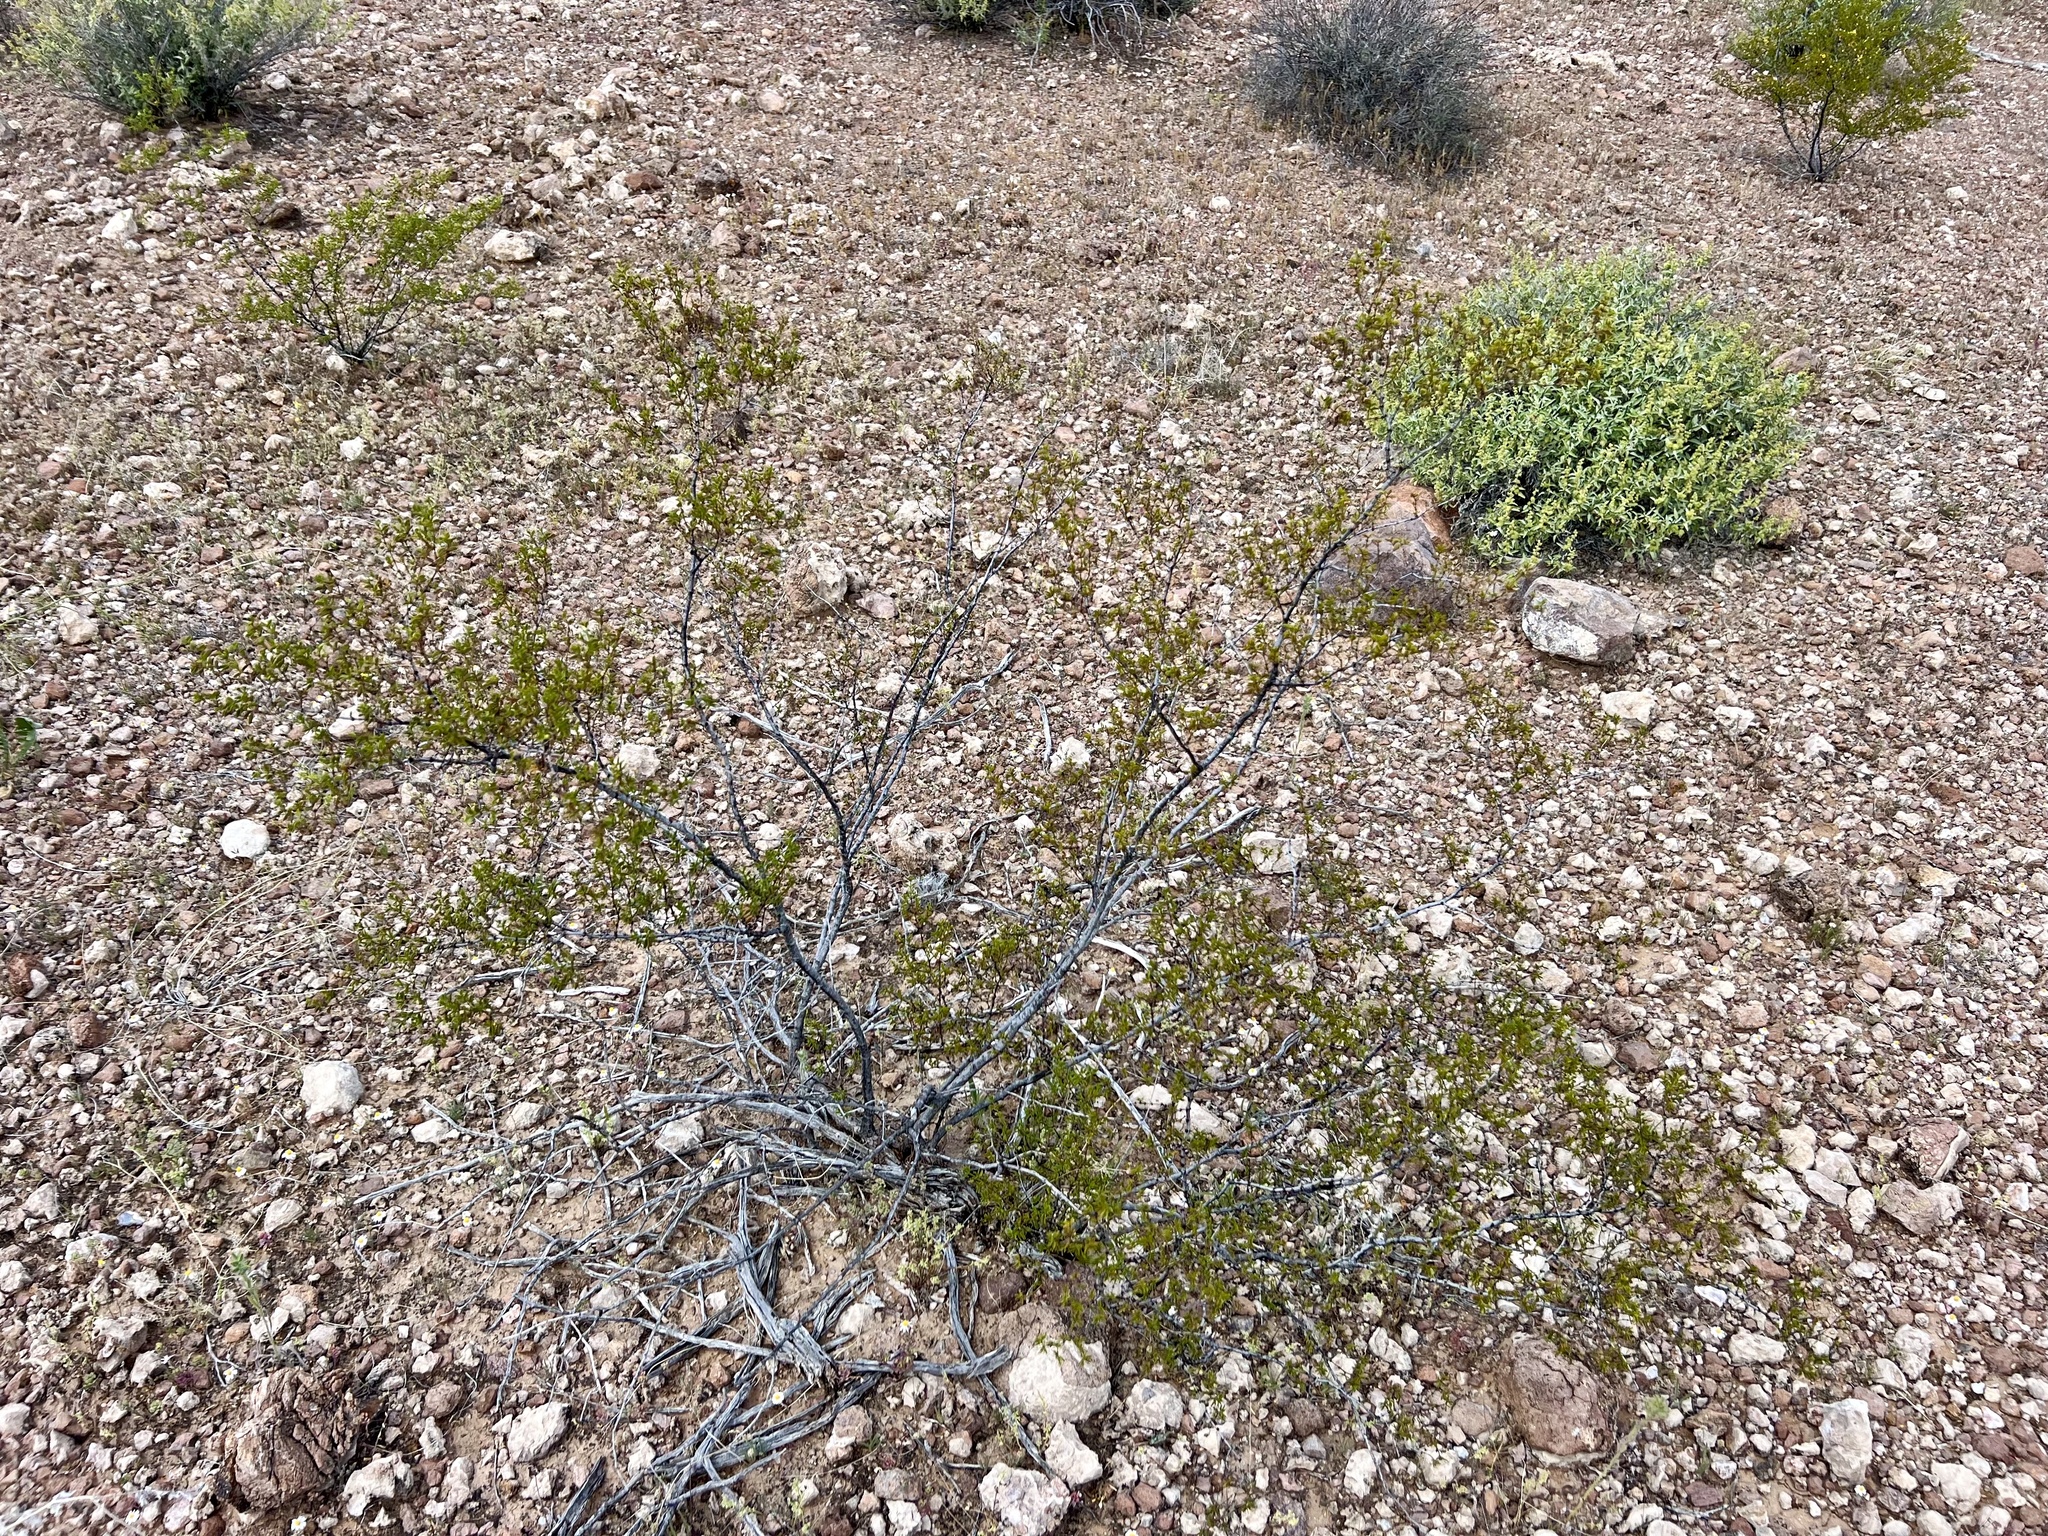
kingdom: Plantae
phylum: Tracheophyta
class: Magnoliopsida
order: Zygophyllales
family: Zygophyllaceae
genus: Larrea
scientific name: Larrea tridentata
